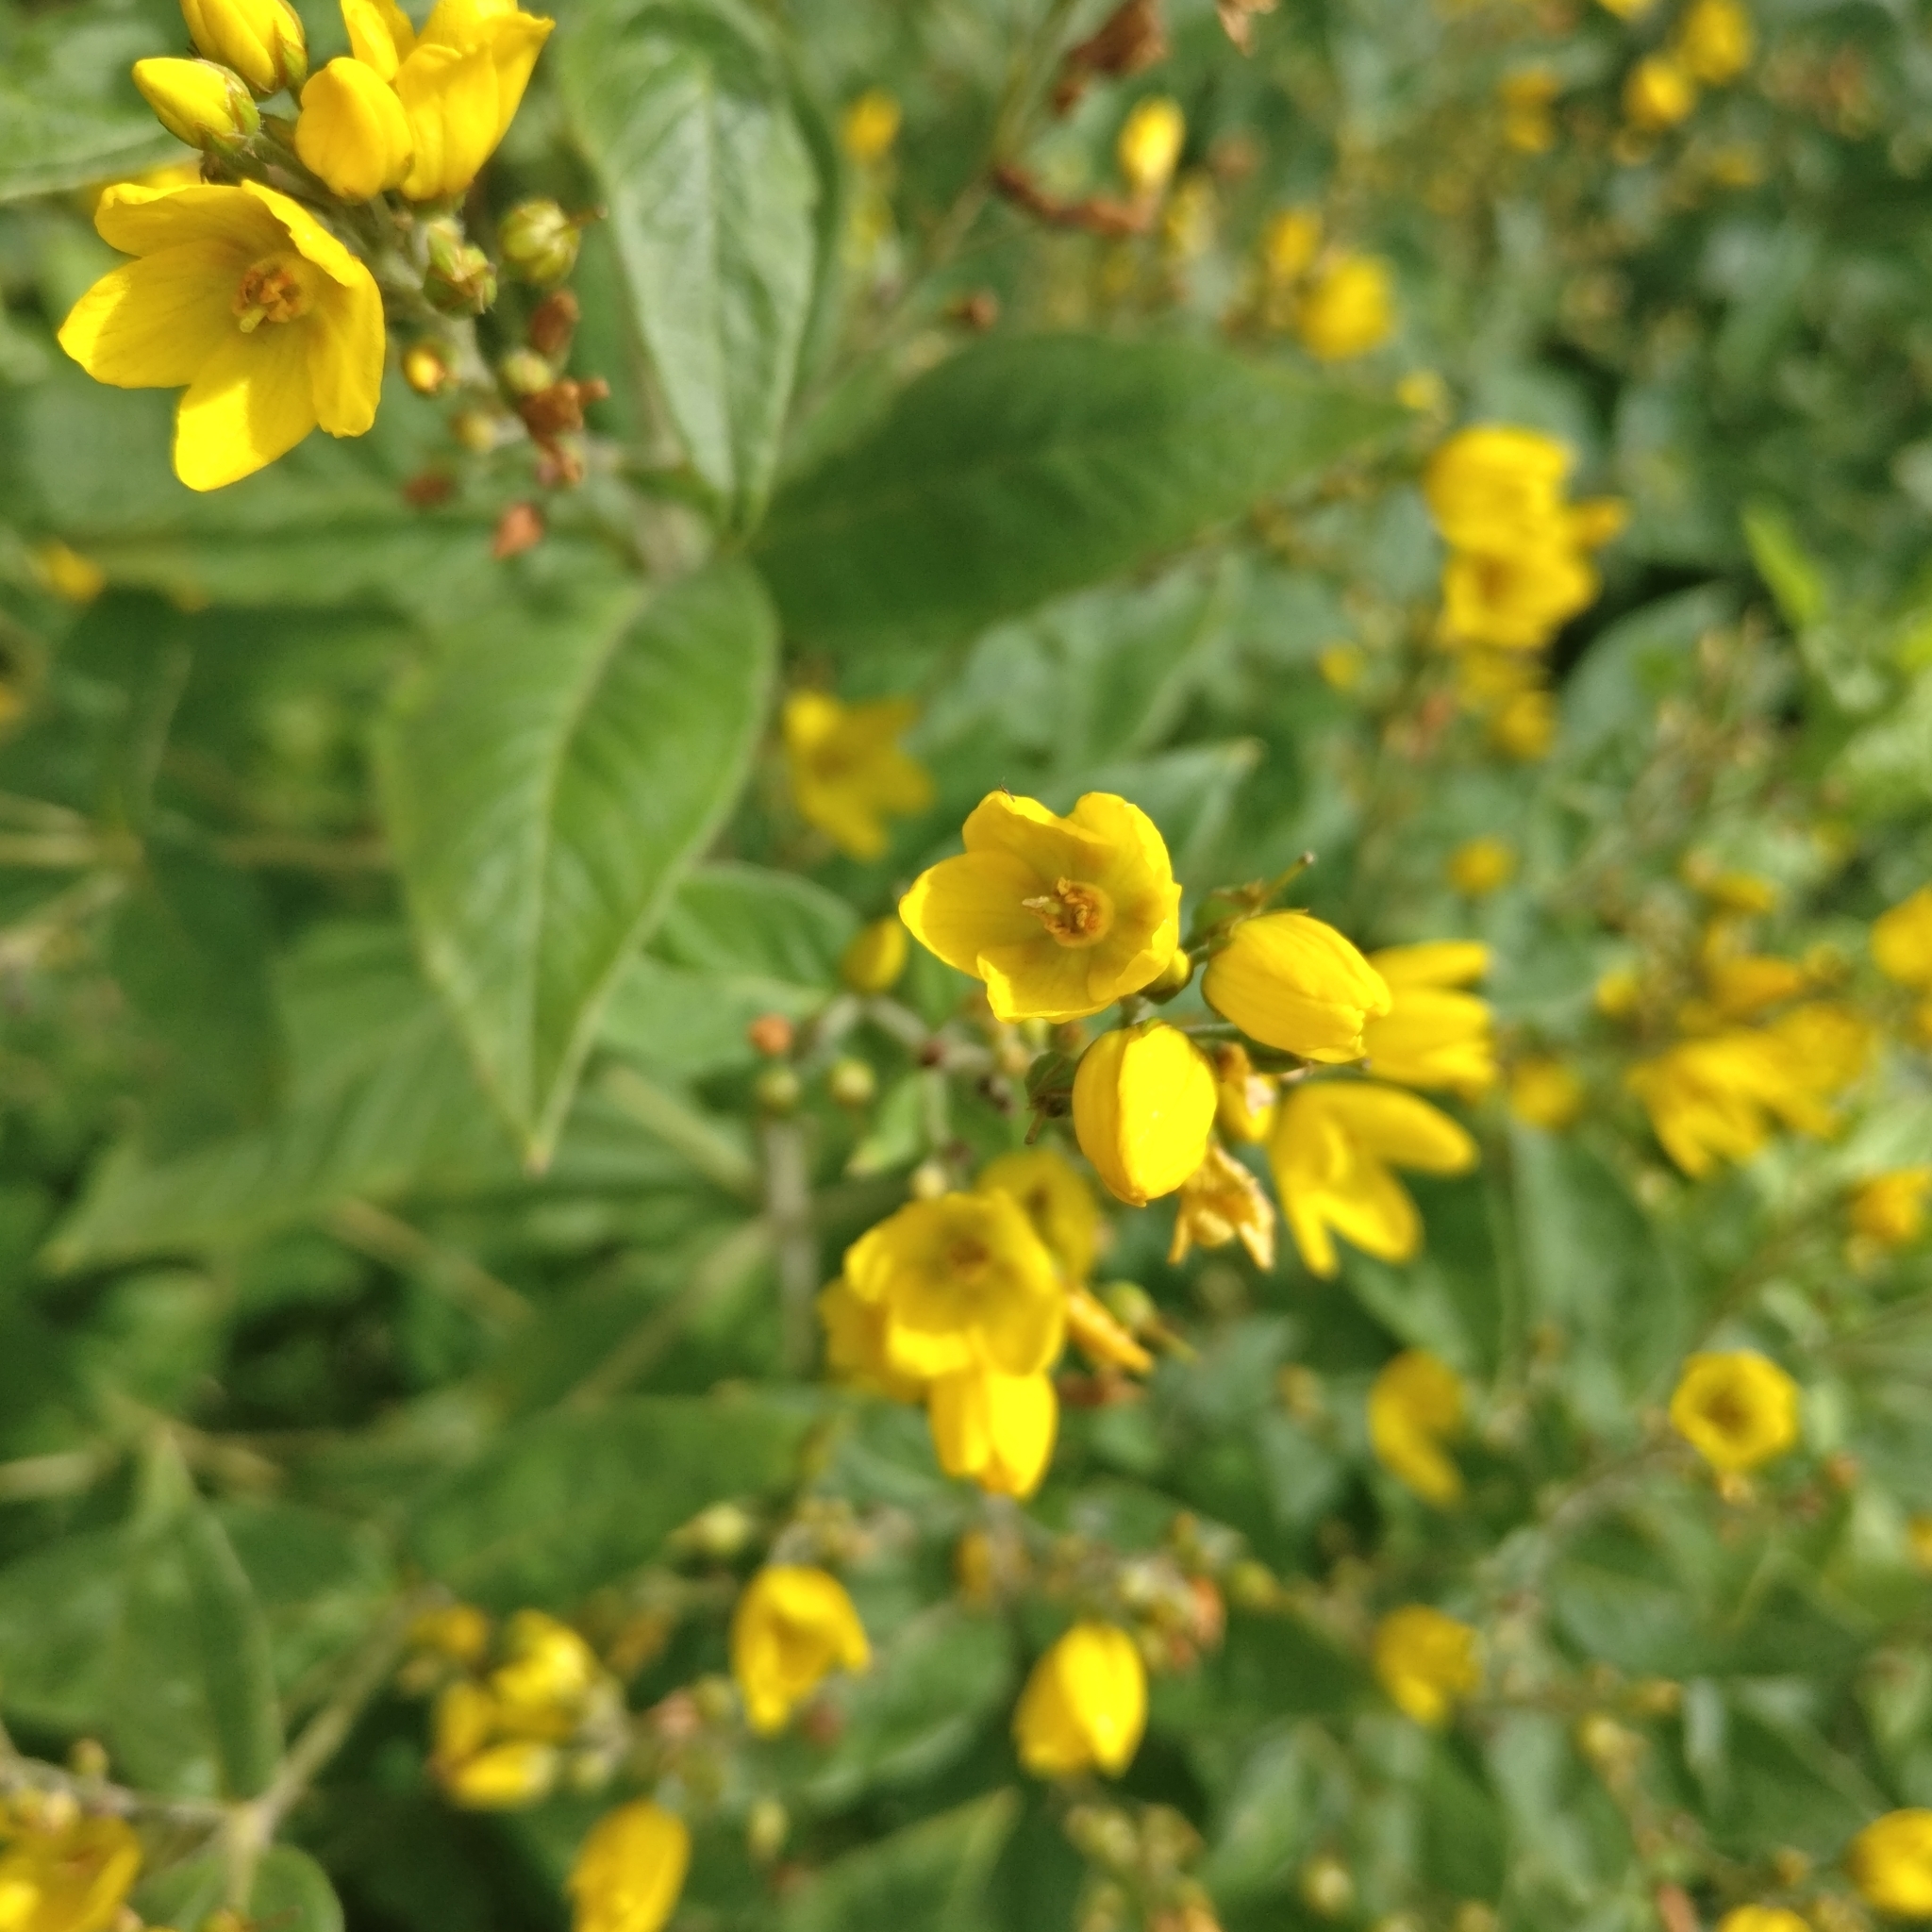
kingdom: Plantae
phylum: Tracheophyta
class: Magnoliopsida
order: Ericales
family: Primulaceae
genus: Lysimachia
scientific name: Lysimachia vulgaris
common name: Yellow loosestrife
